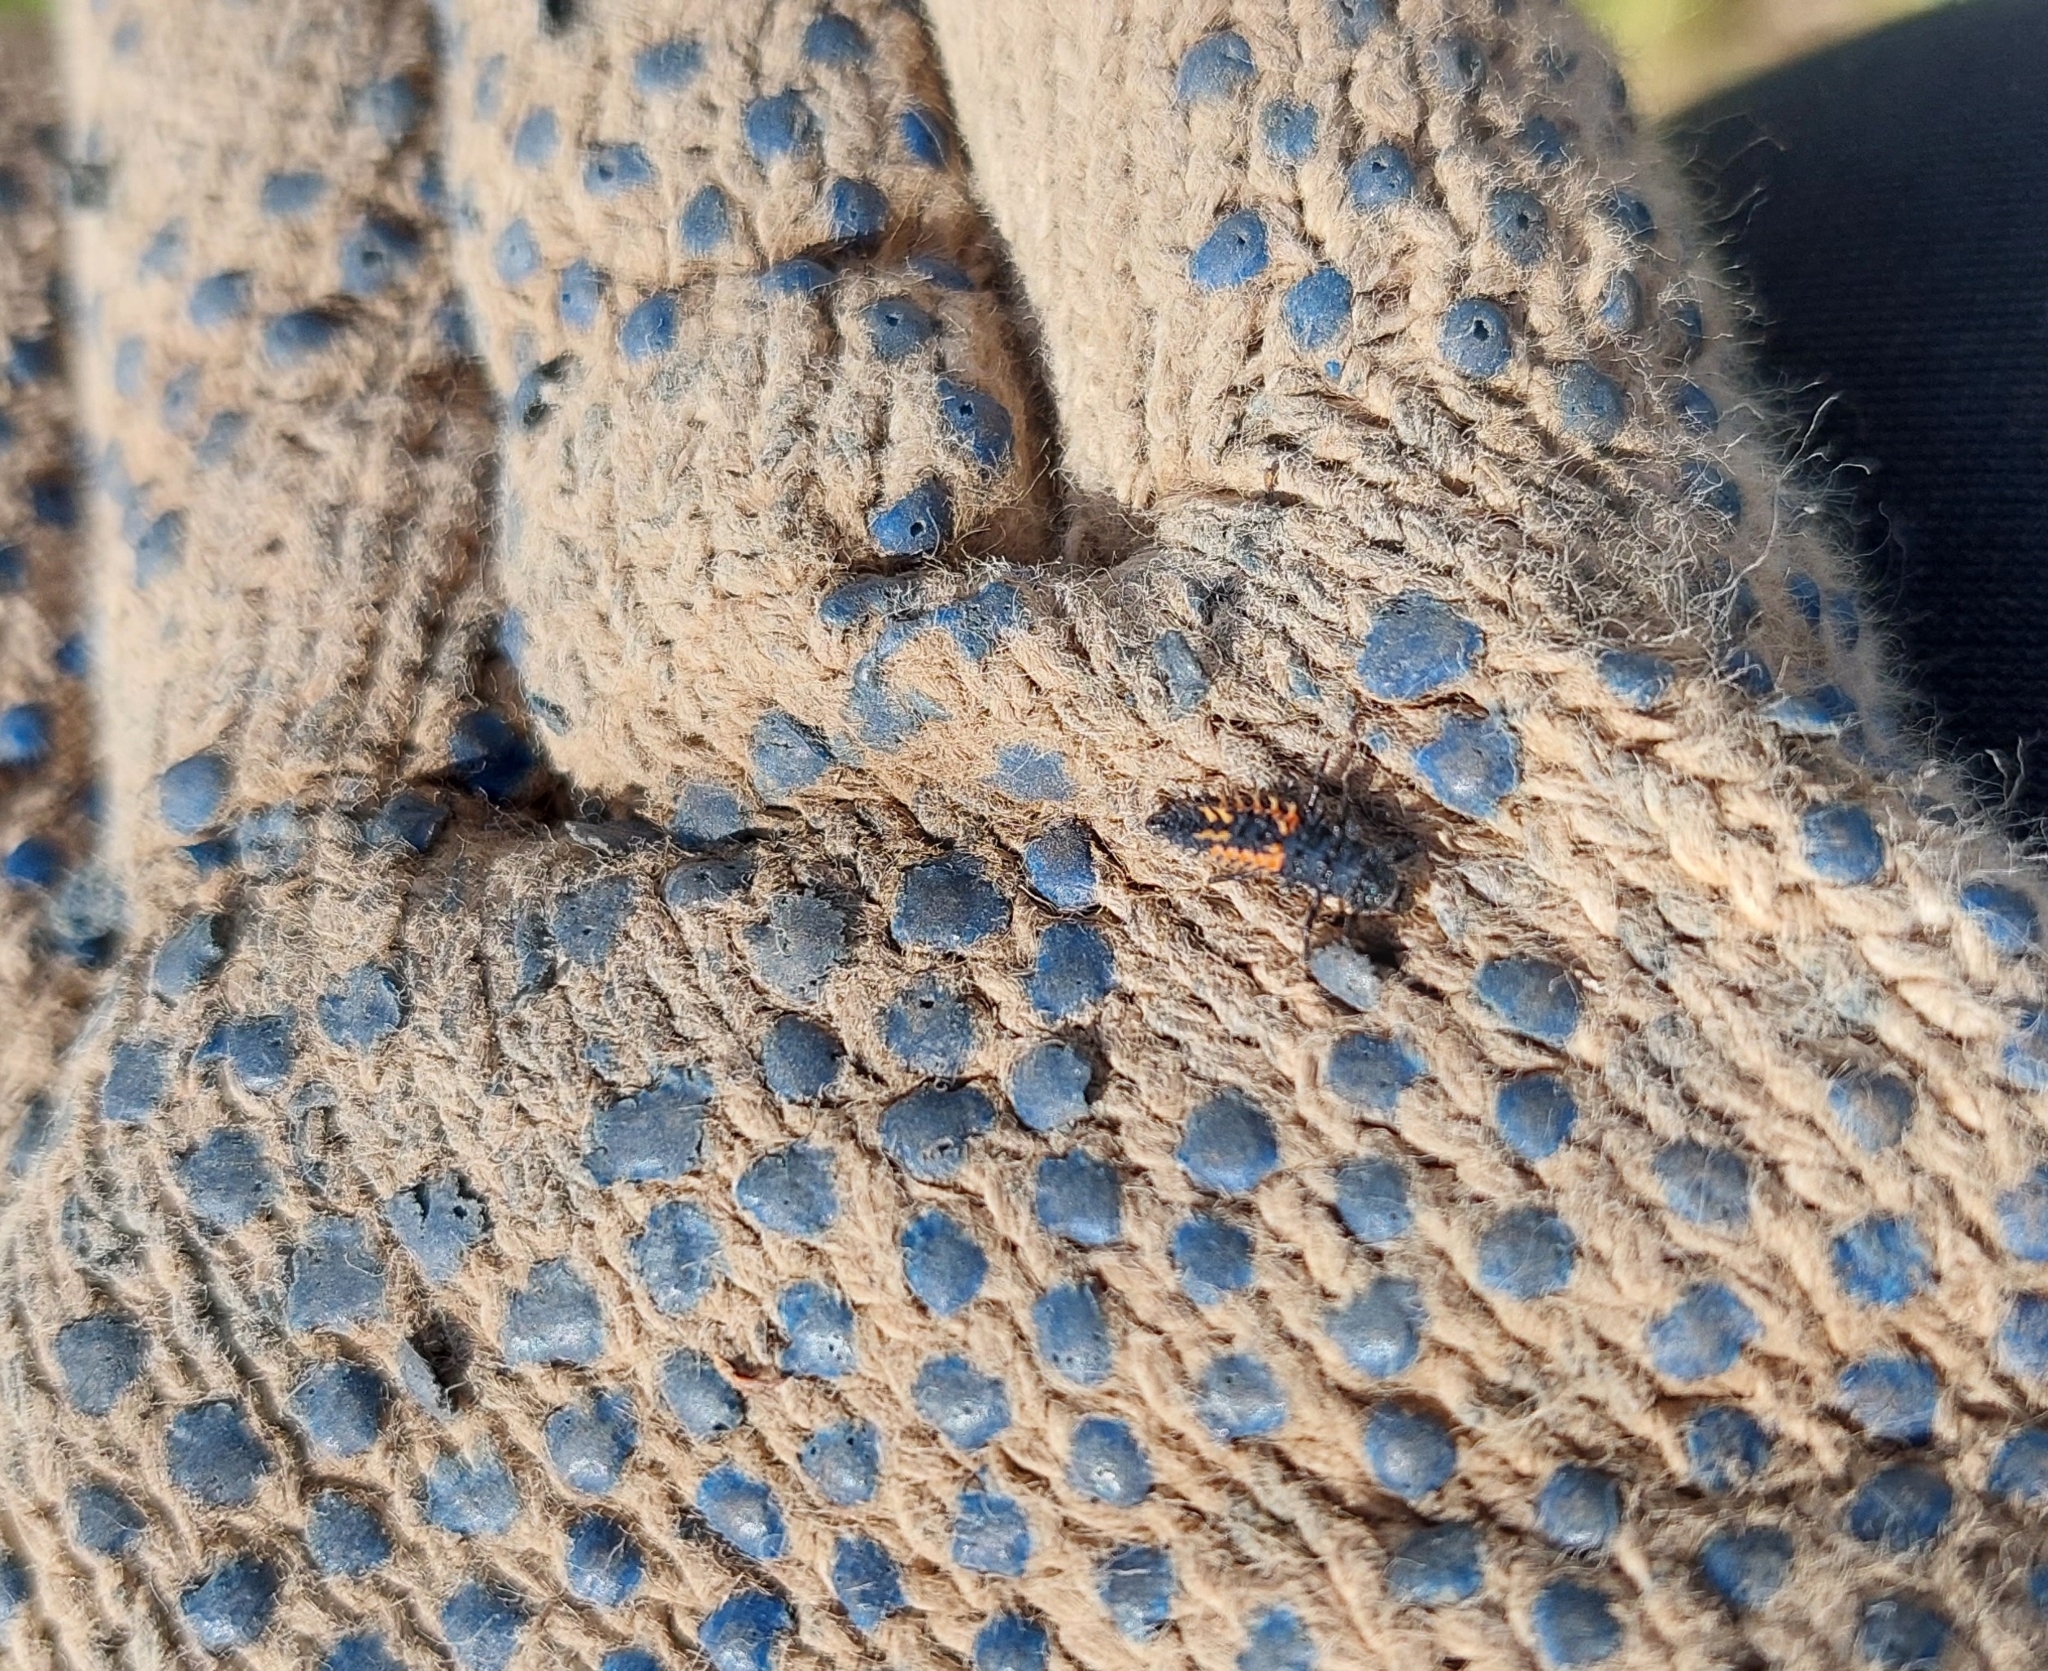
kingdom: Animalia
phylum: Arthropoda
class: Insecta
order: Coleoptera
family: Coccinellidae
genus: Harmonia
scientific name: Harmonia axyridis
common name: Harlequin ladybird
